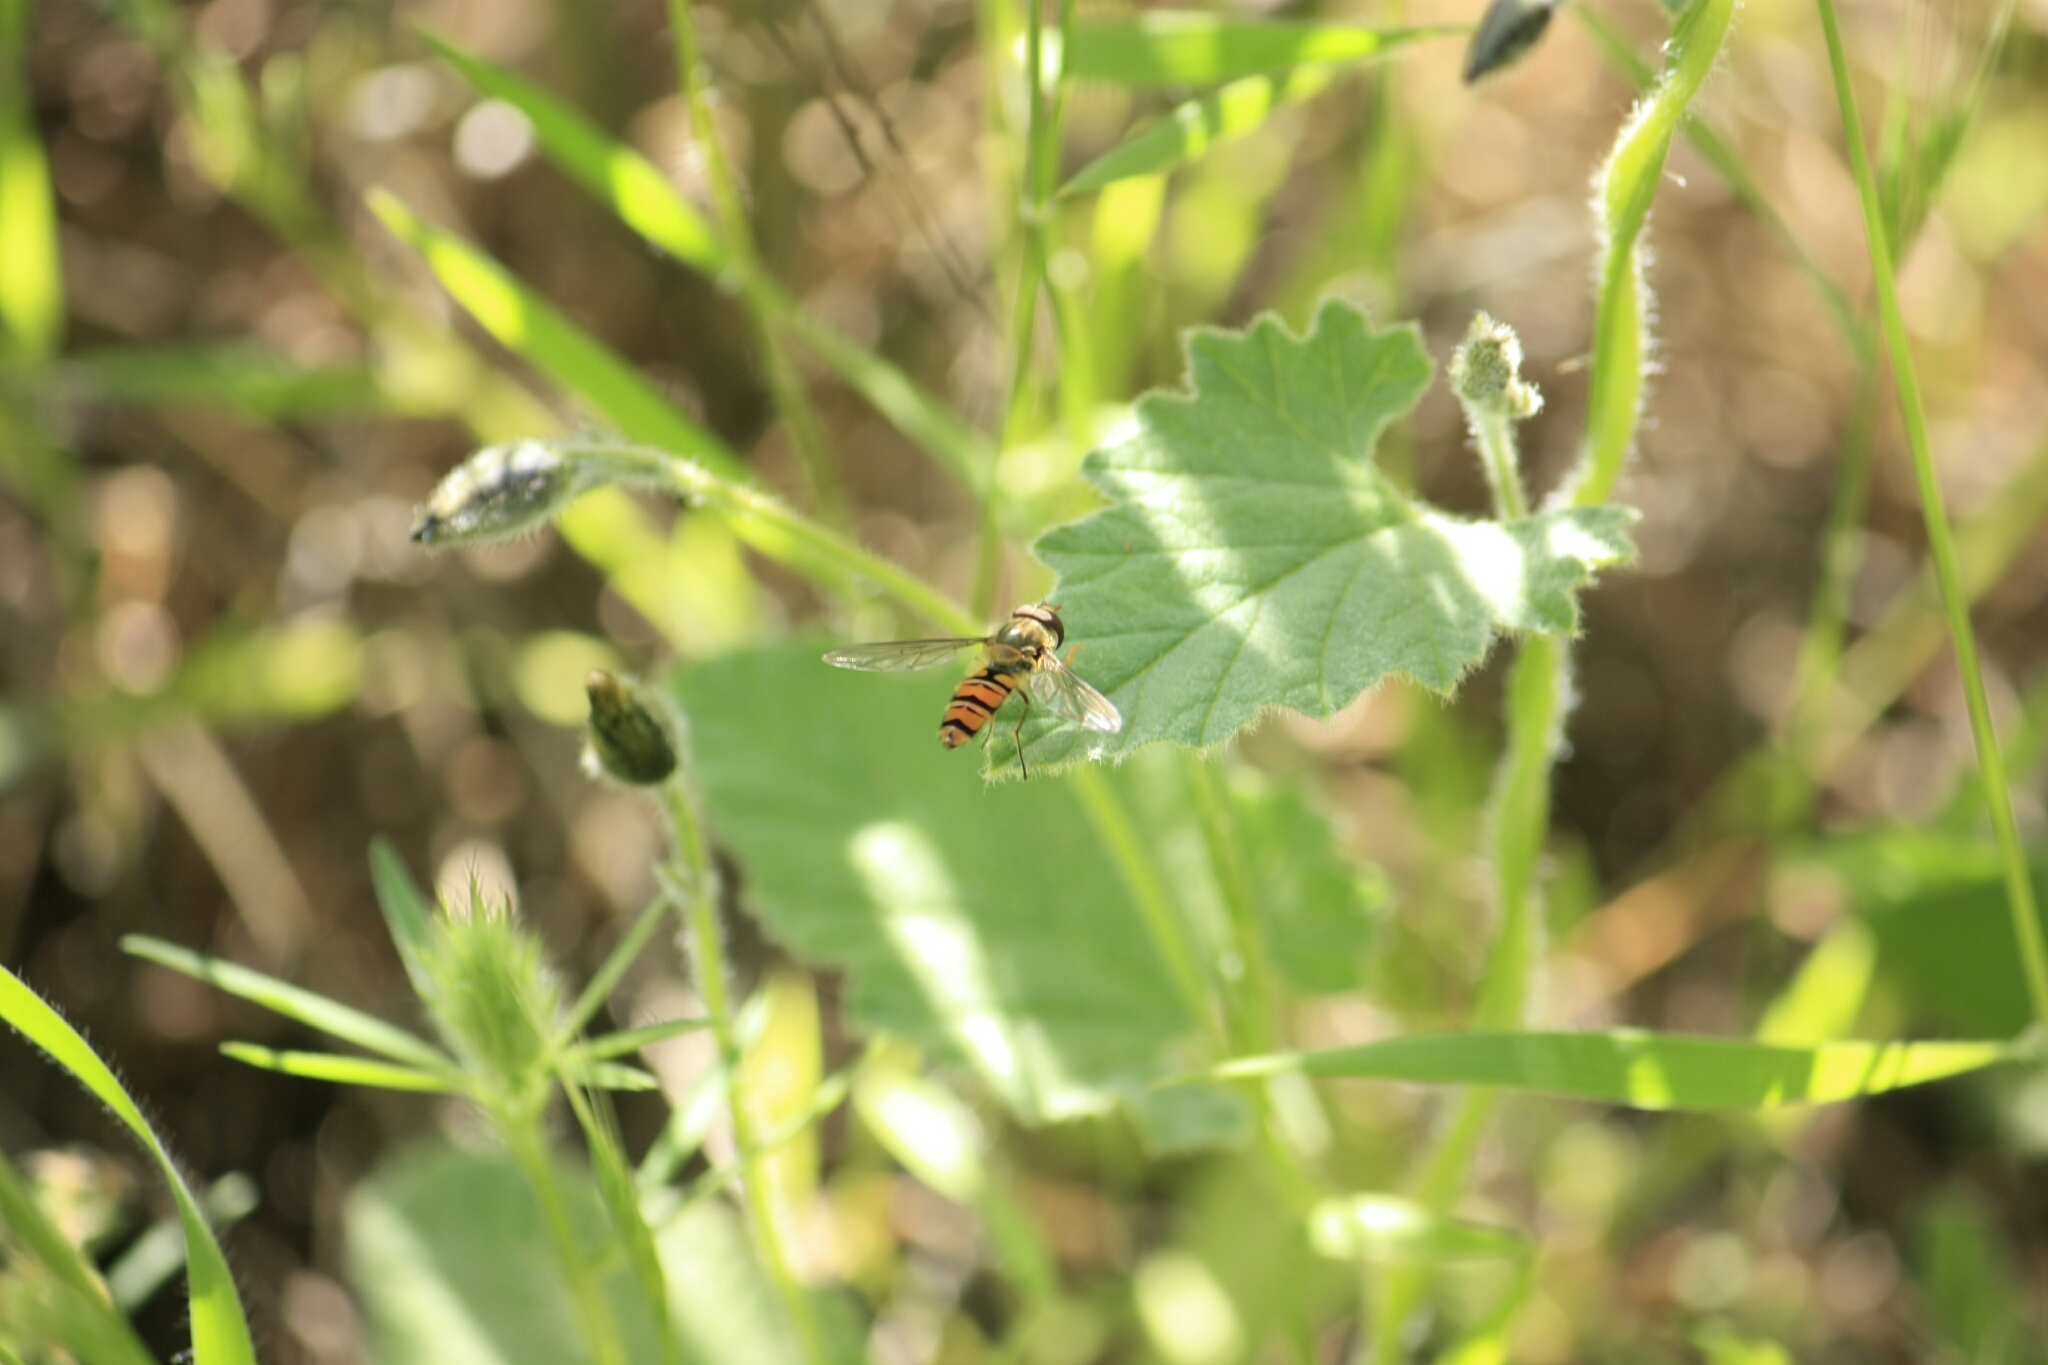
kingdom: Animalia
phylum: Arthropoda
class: Insecta
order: Diptera
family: Syrphidae
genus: Episyrphus
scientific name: Episyrphus balteatus
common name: Marmalade hoverfly
